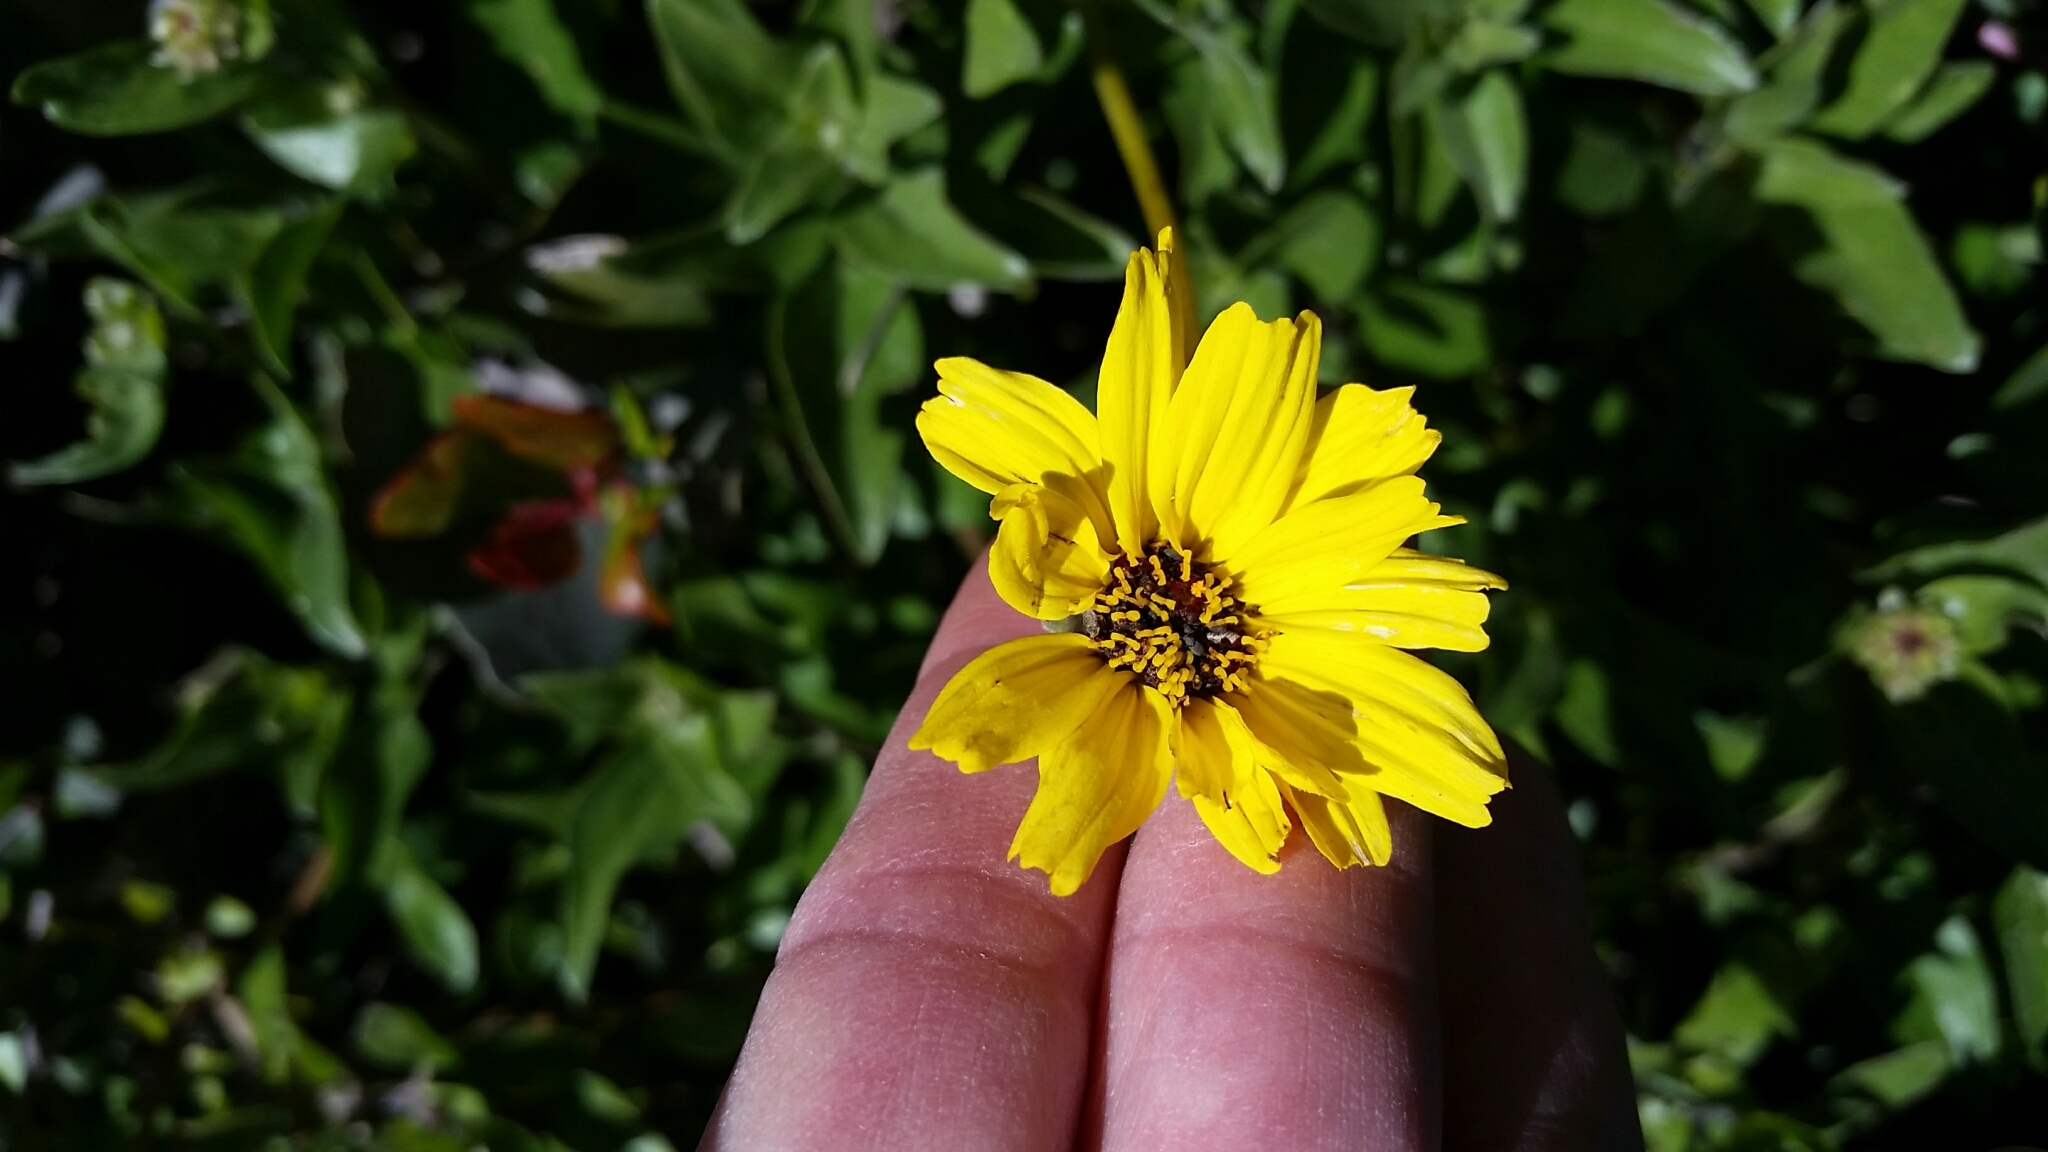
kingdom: Plantae
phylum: Tracheophyta
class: Magnoliopsida
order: Asterales
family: Asteraceae
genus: Encelia
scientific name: Encelia californica
